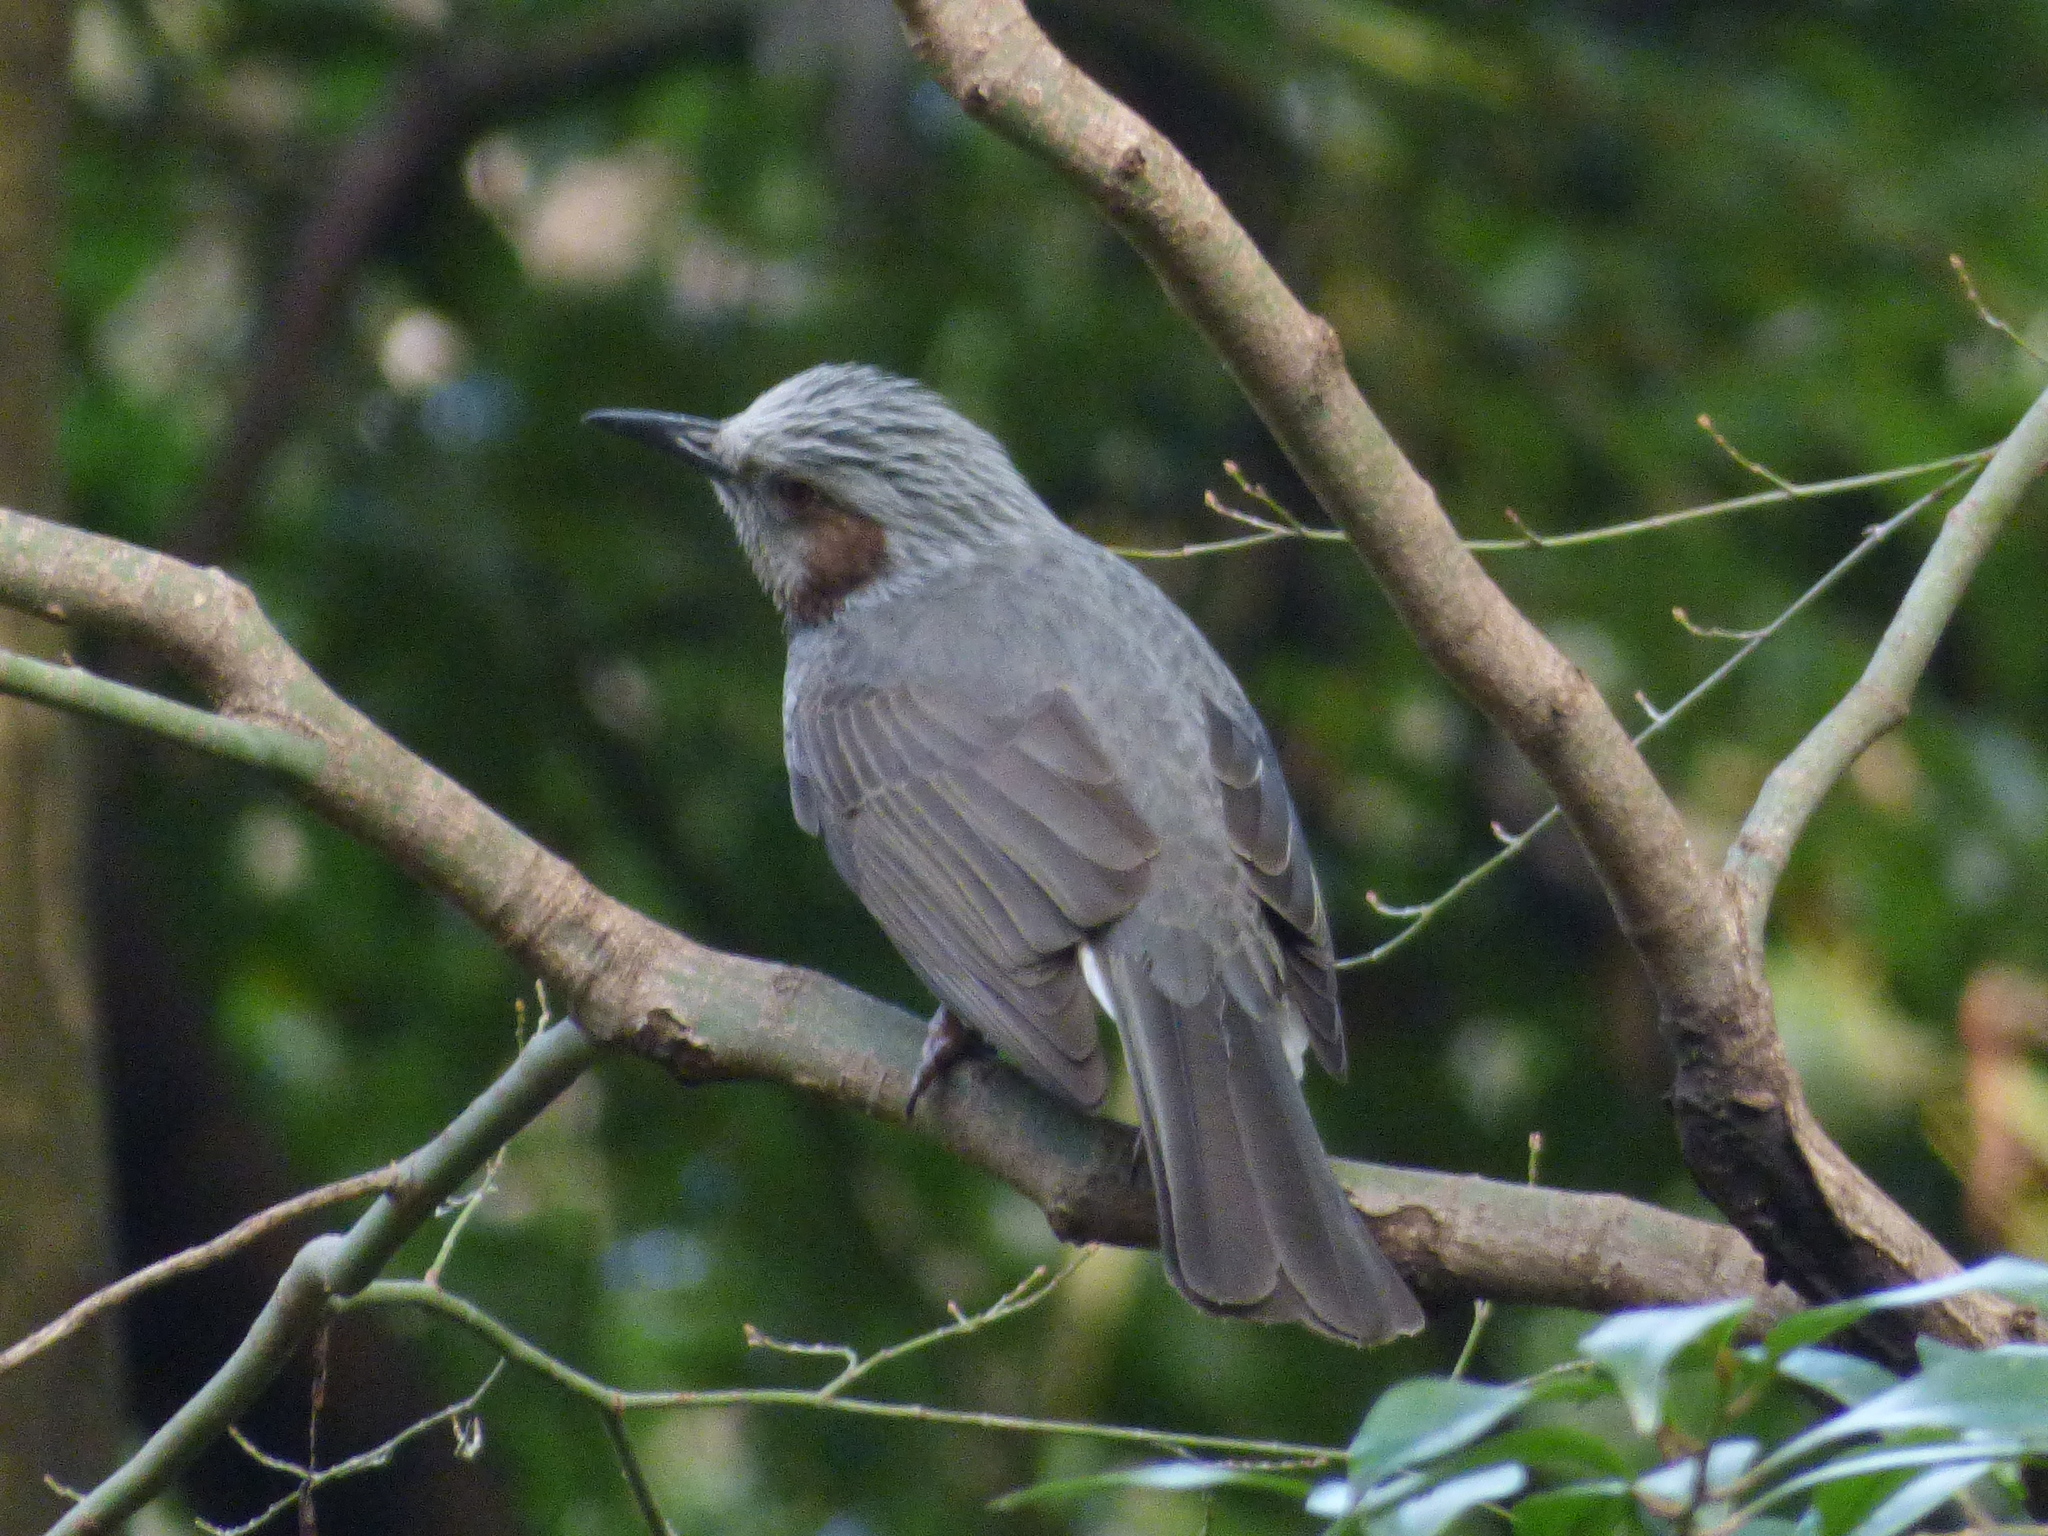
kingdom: Animalia
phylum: Chordata
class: Aves
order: Passeriformes
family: Pycnonotidae
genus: Hypsipetes
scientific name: Hypsipetes amaurotis
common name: Brown-eared bulbul
